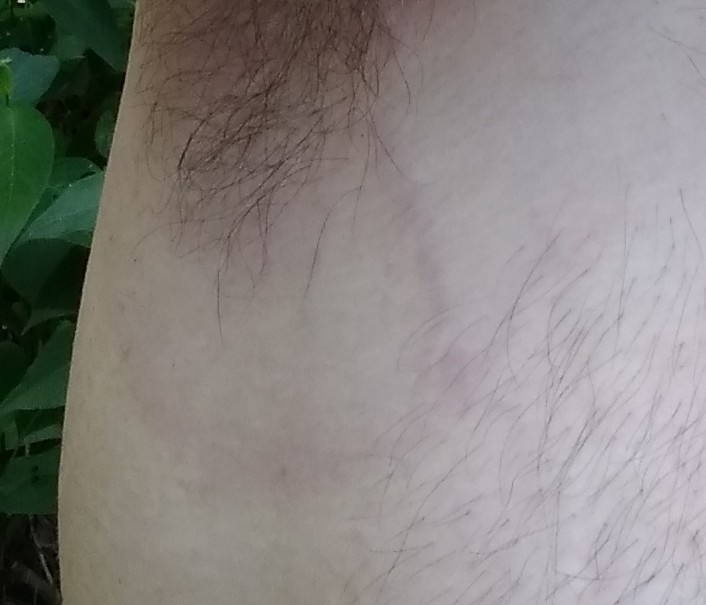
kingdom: Bacteria
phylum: Spirochaetota
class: Spirochaetia
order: Borreliales
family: Borreliaceae
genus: Borreliella
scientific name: Borreliella burgdorferi
